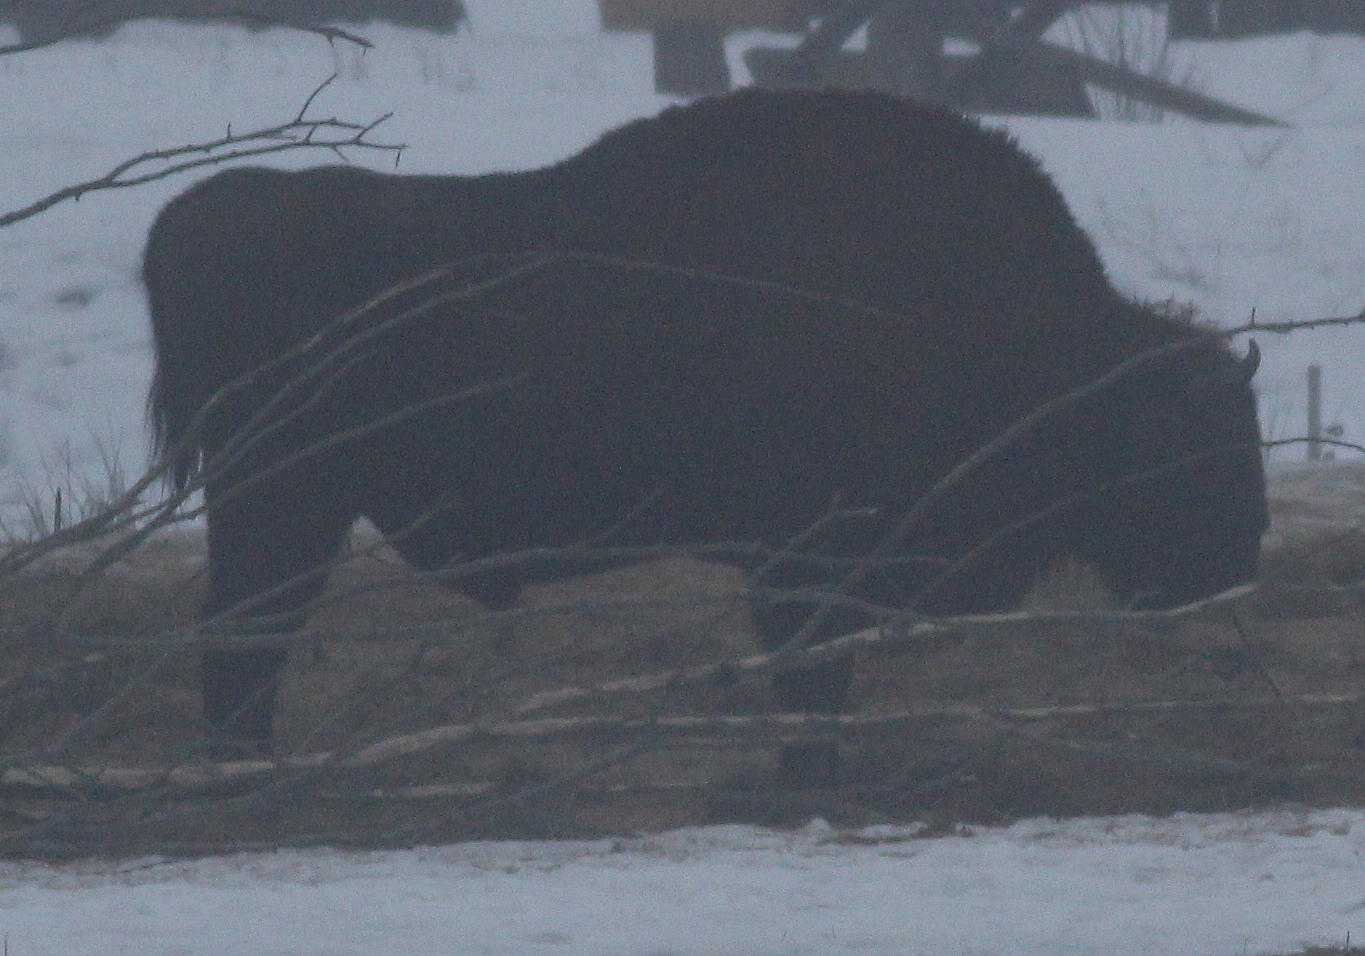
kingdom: Animalia
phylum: Chordata
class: Mammalia
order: Artiodactyla
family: Bovidae
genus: Bison
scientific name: Bison bonasus
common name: European bison
